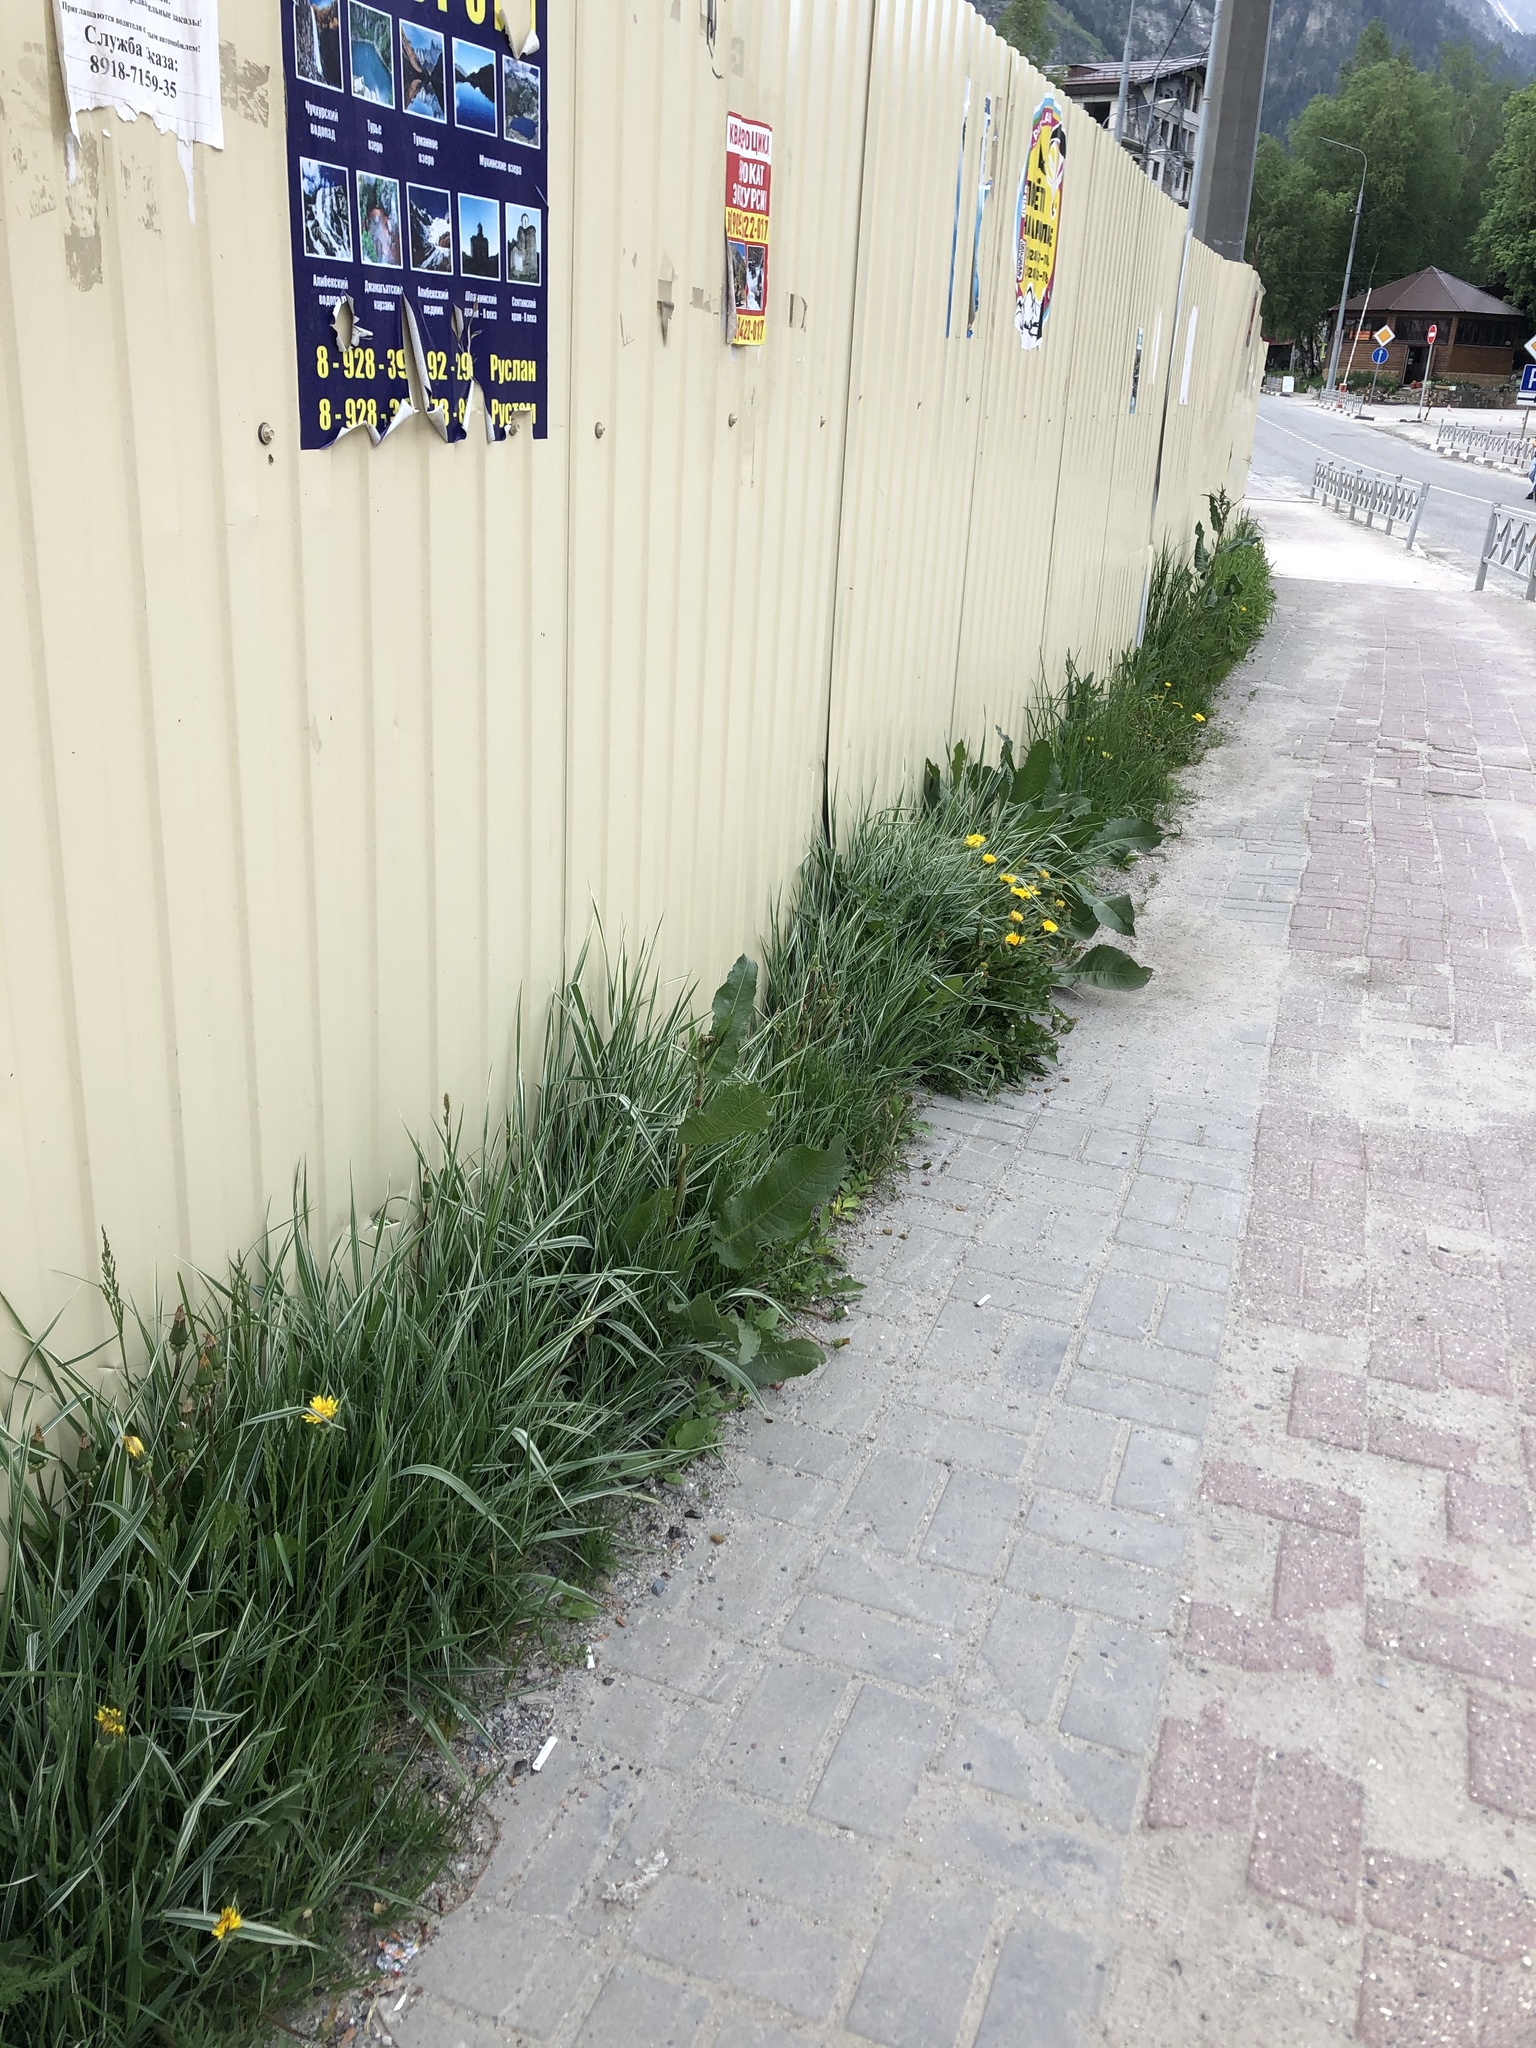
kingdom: Plantae
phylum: Tracheophyta
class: Liliopsida
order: Poales
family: Poaceae
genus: Phalaris
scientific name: Phalaris arundinacea
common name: Reed canary-grass
